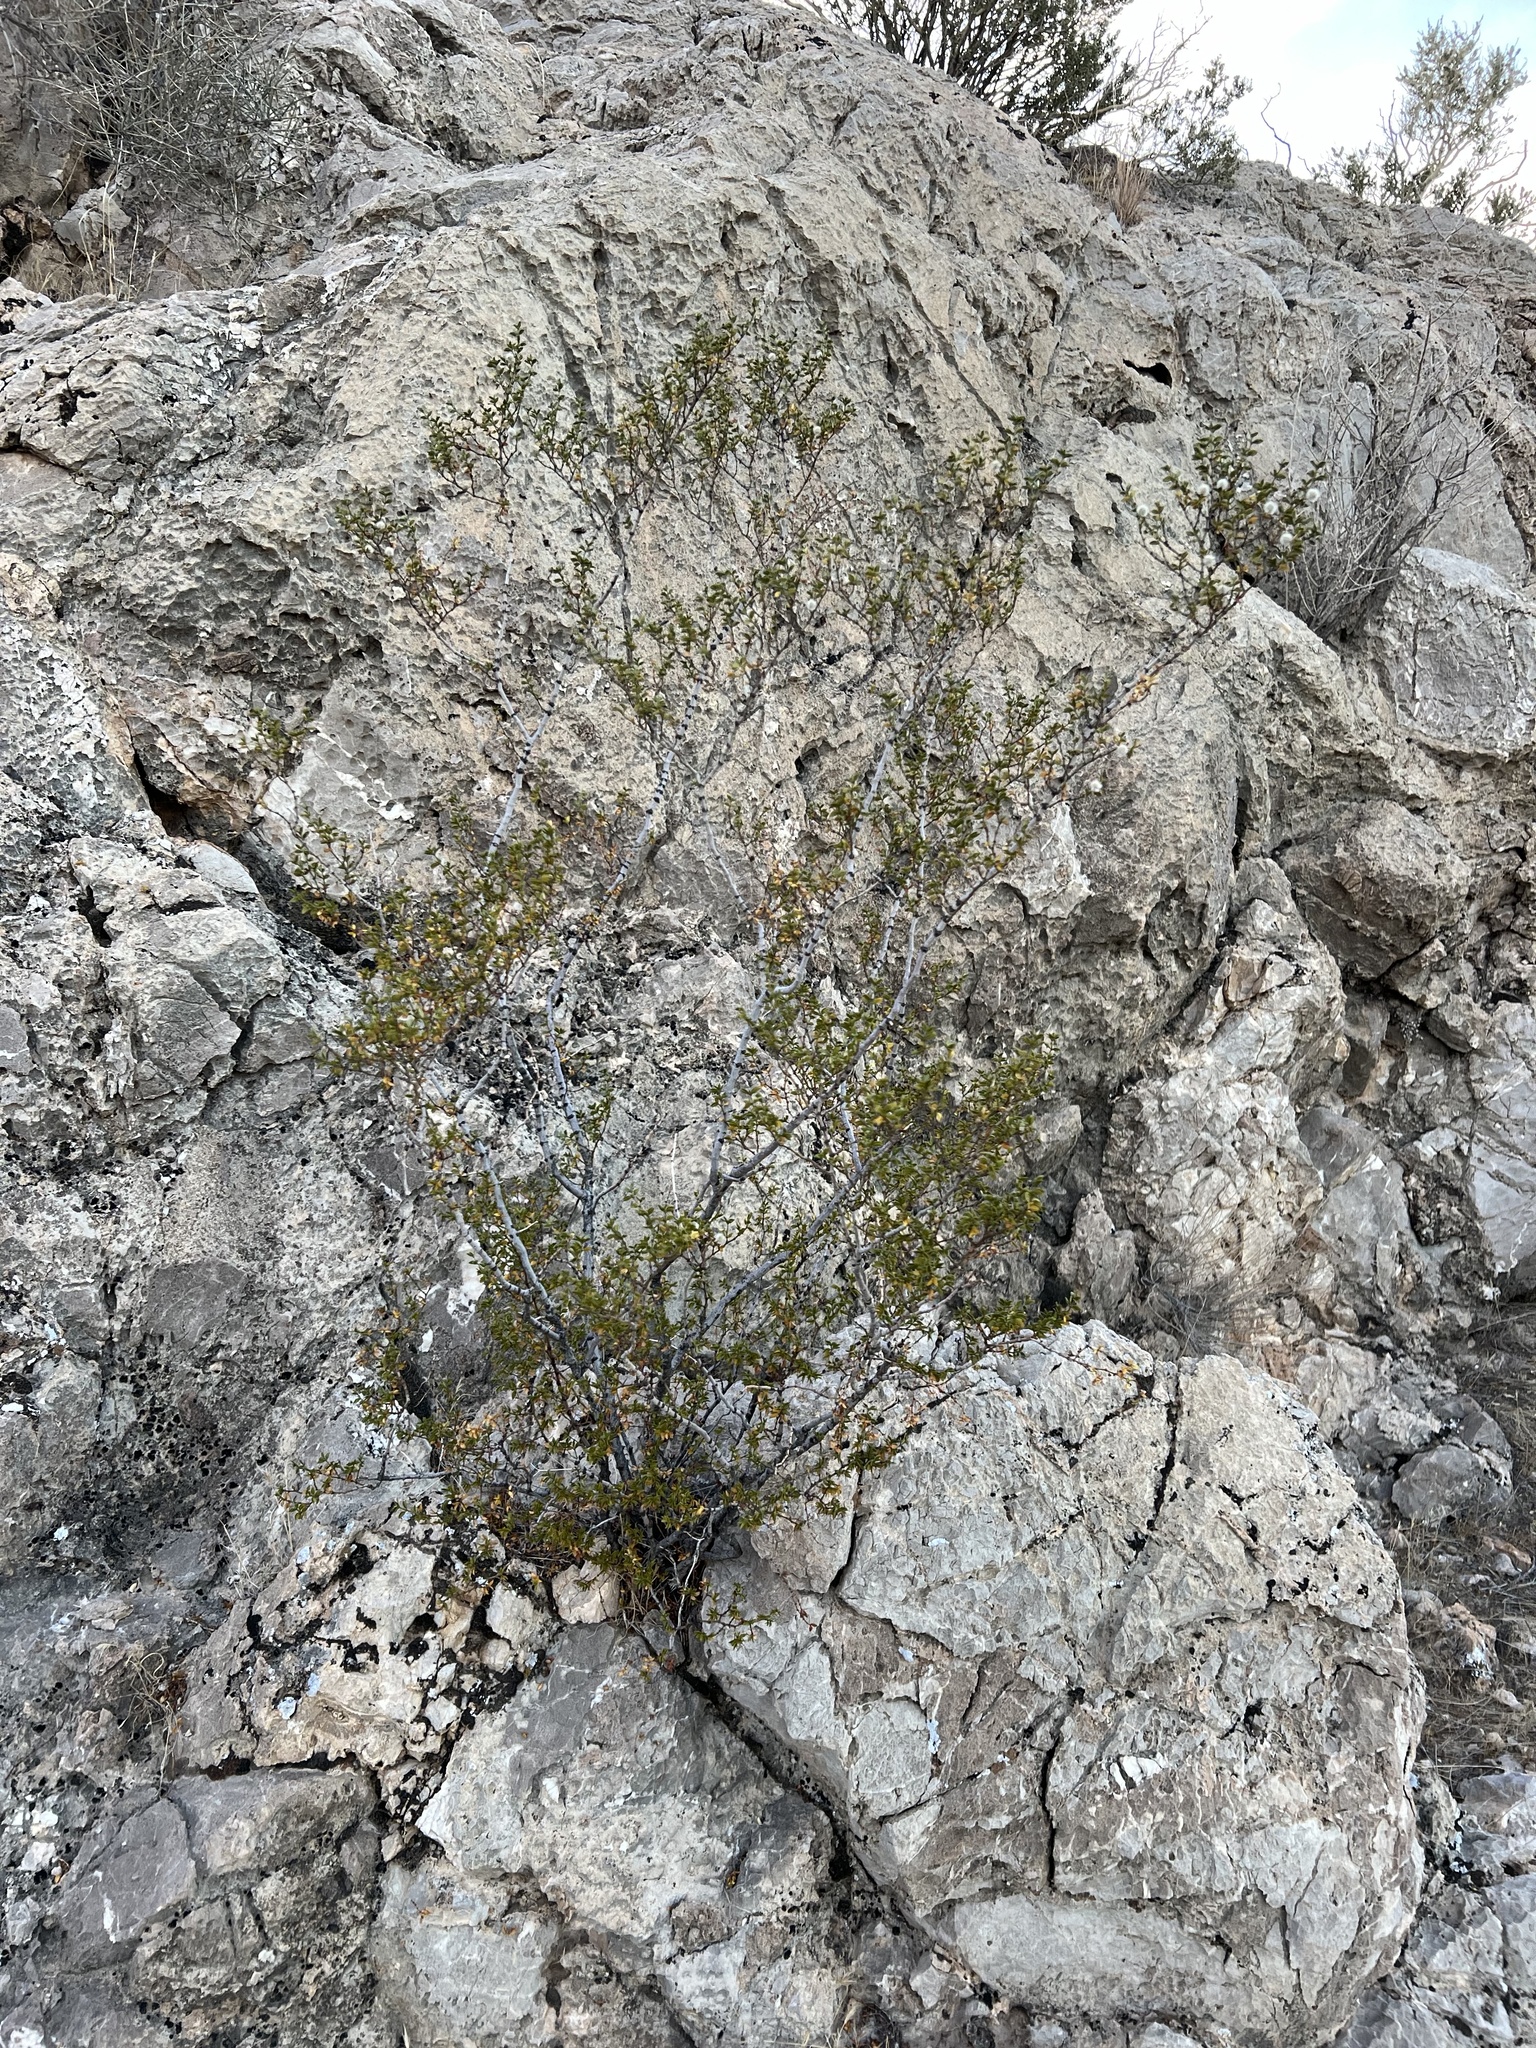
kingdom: Plantae
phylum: Tracheophyta
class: Magnoliopsida
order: Zygophyllales
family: Zygophyllaceae
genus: Larrea
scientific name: Larrea tridentata
